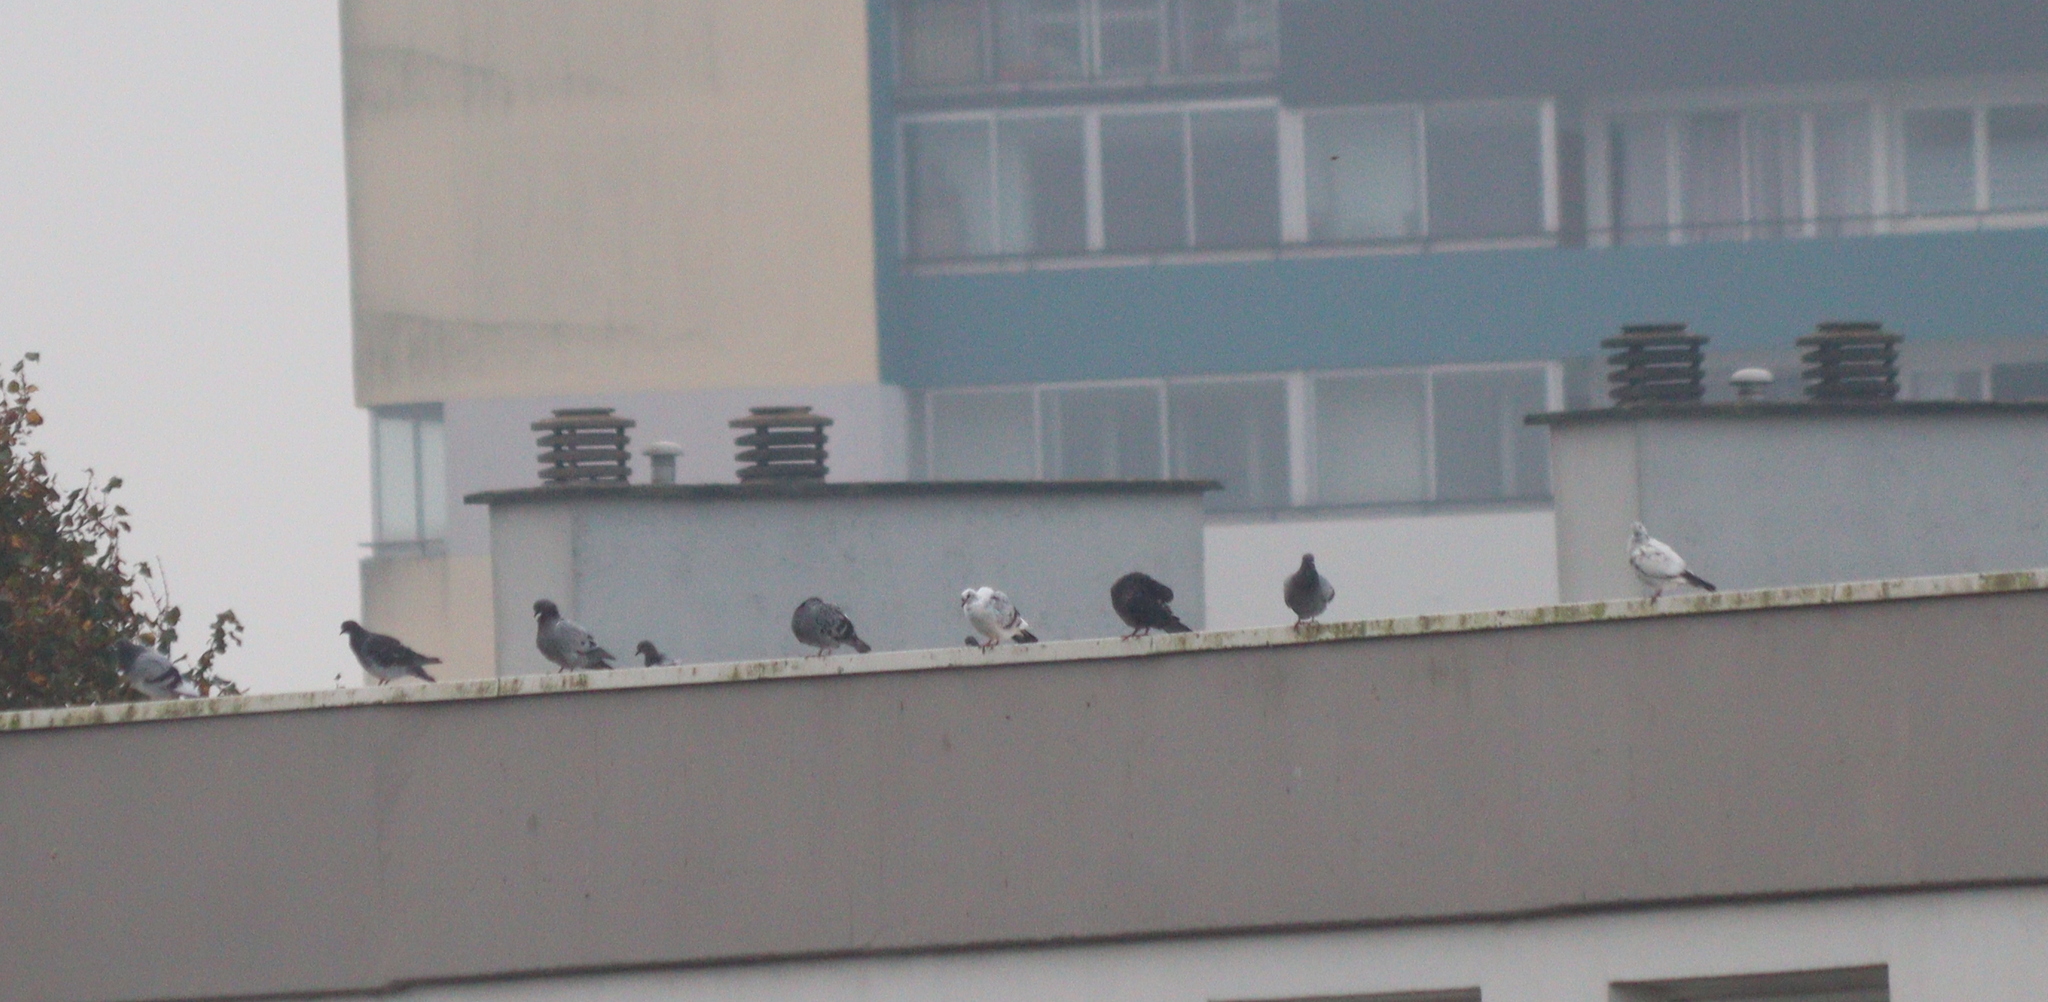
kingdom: Animalia
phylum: Chordata
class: Aves
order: Columbiformes
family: Columbidae
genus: Columba
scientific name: Columba livia
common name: Rock pigeon
